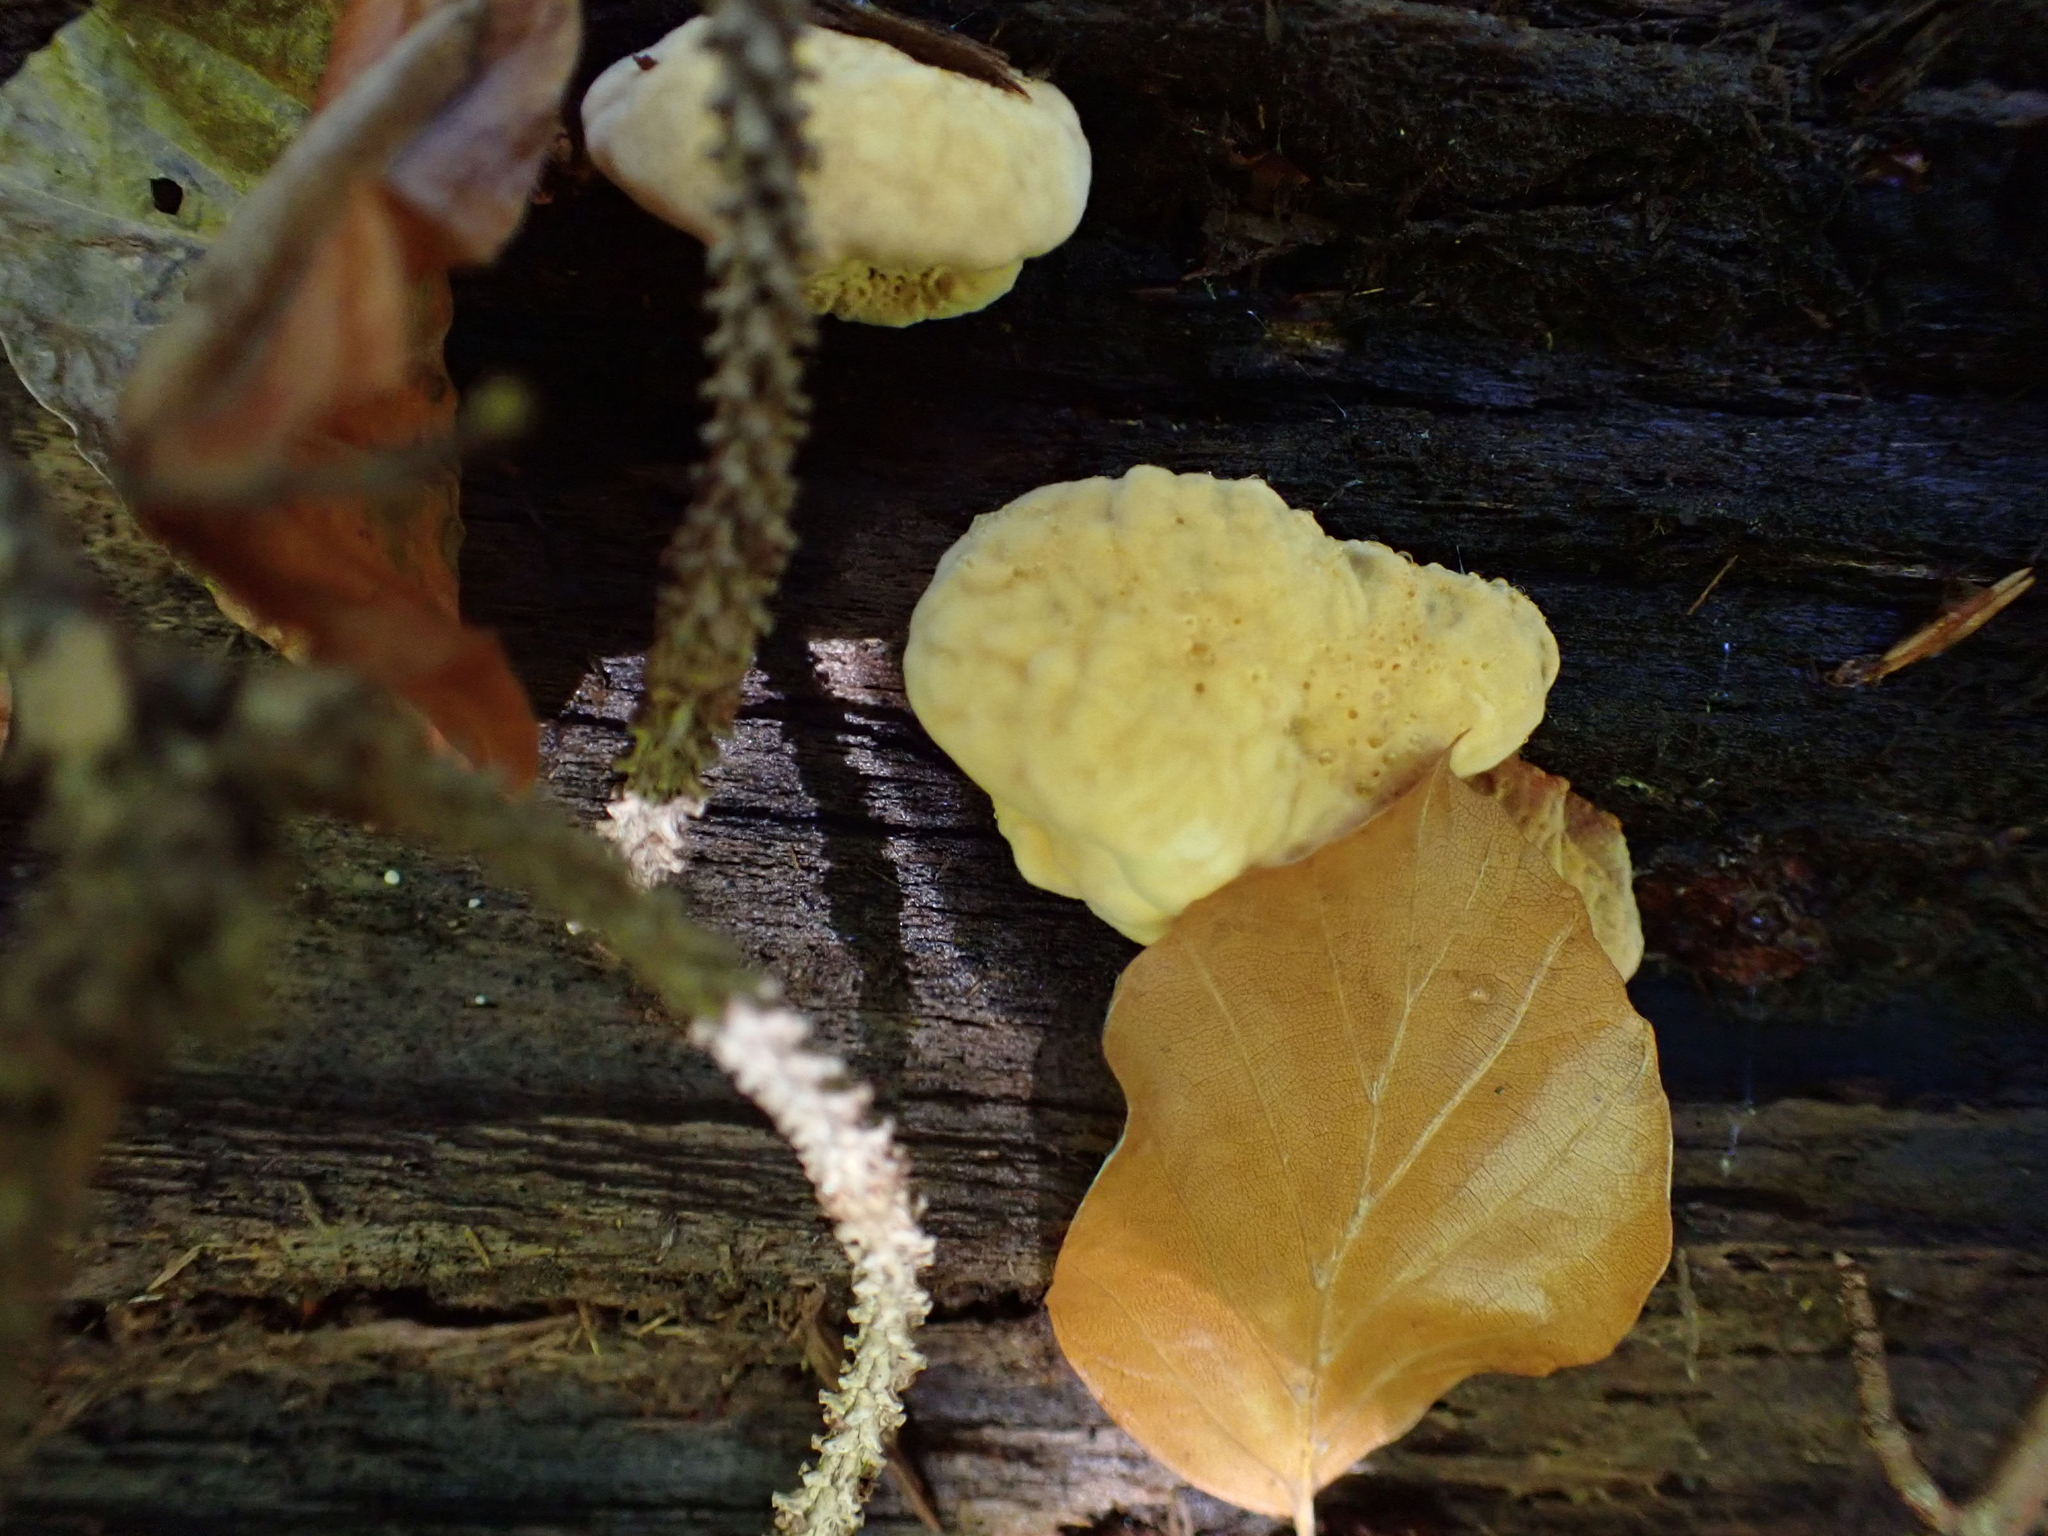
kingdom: Fungi
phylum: Basidiomycota
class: Agaricomycetes
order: Polyporales
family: Laetiporaceae
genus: Laetiporus
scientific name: Laetiporus sulphureus
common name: Chicken of the woods
